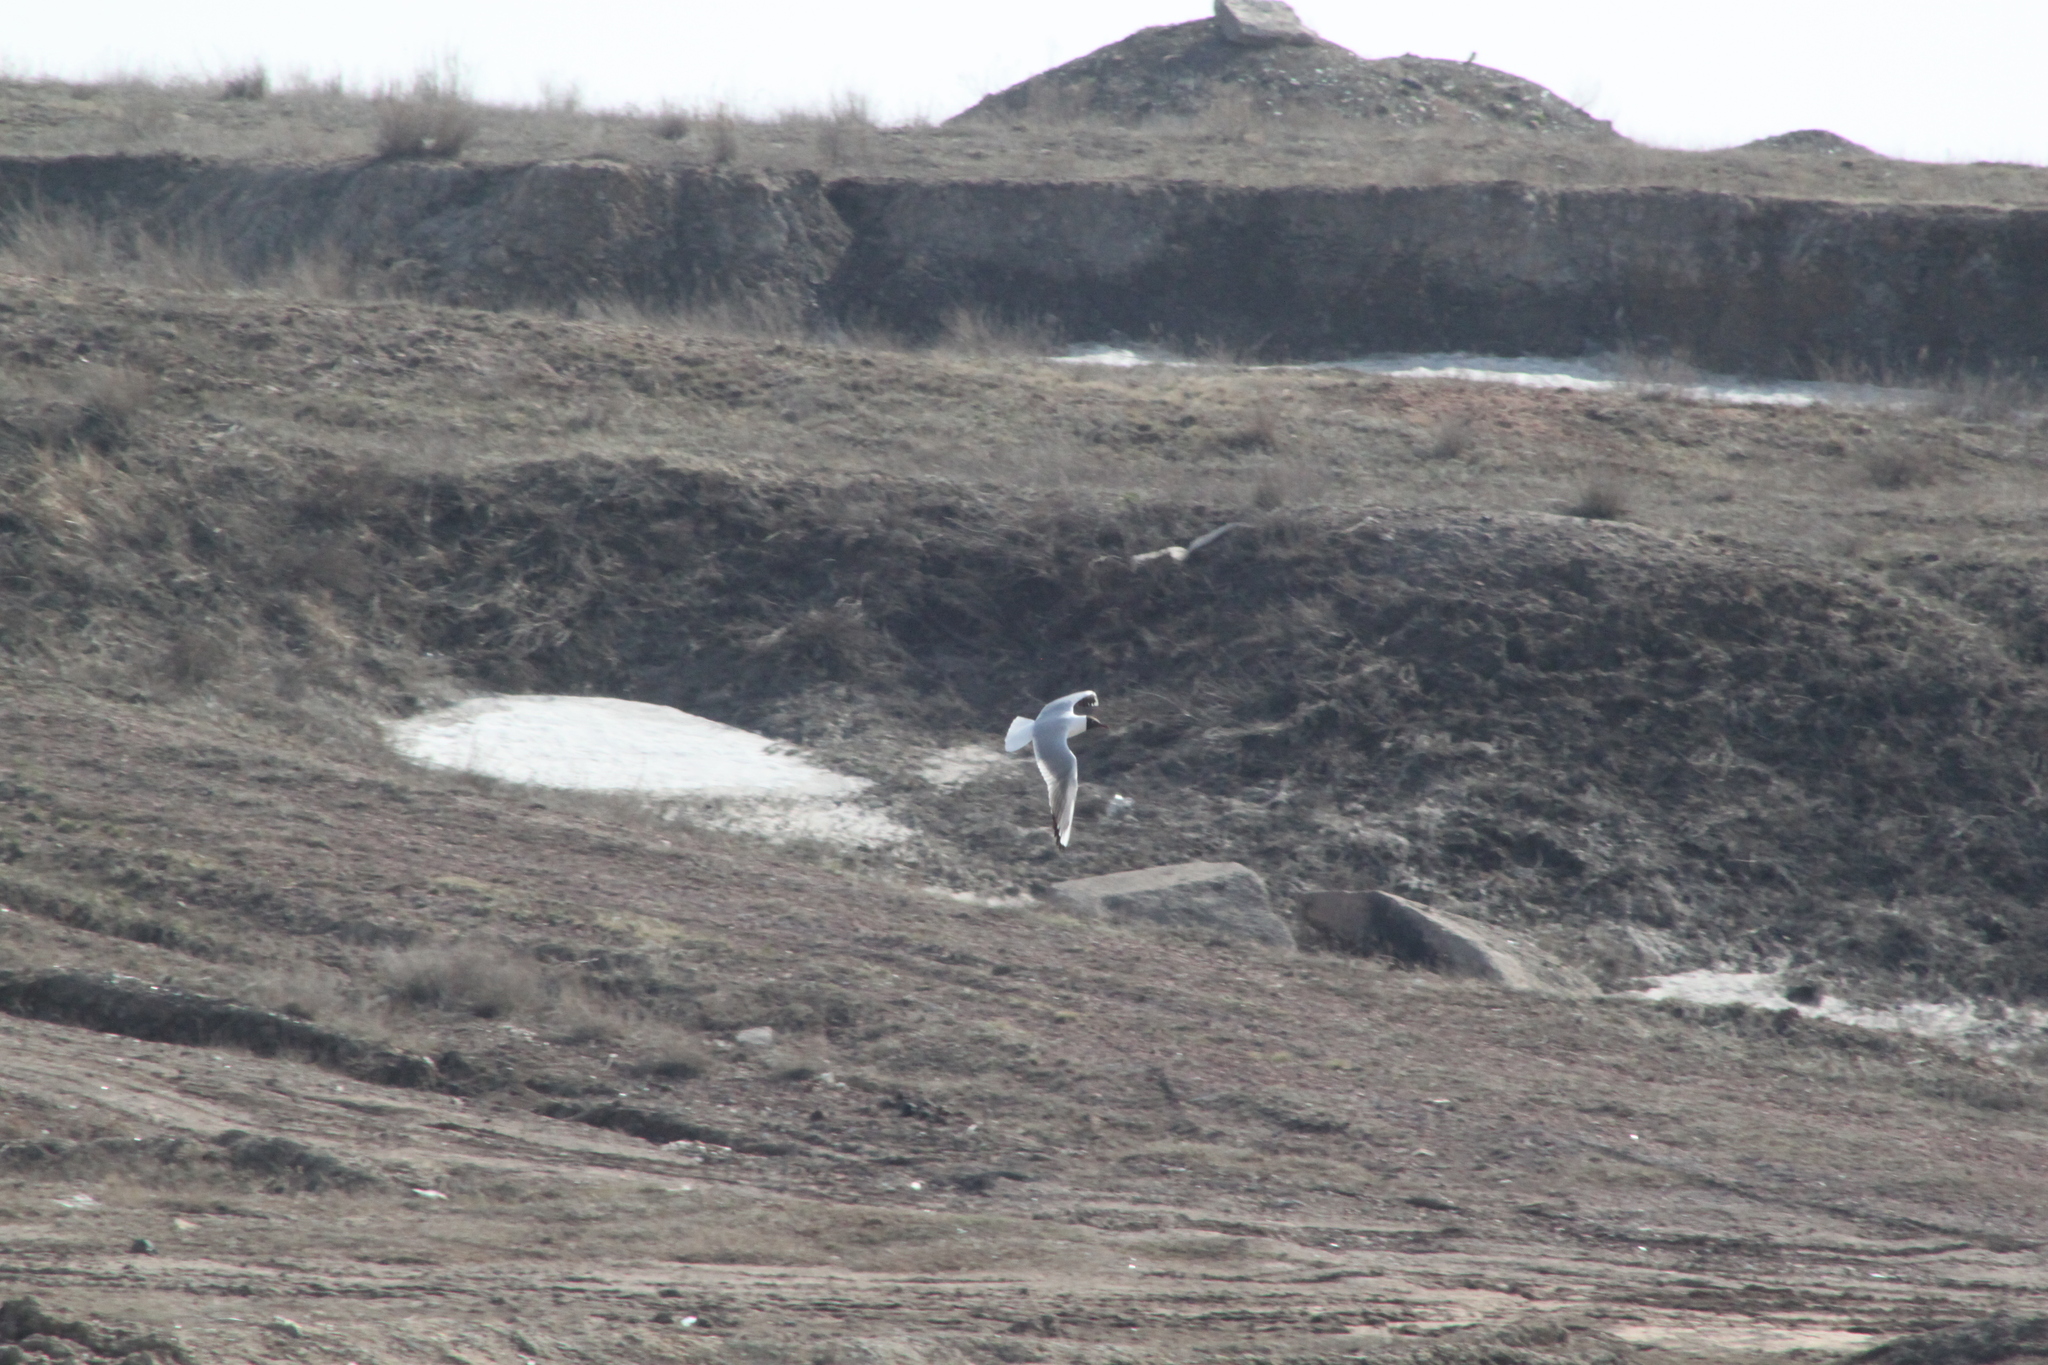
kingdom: Animalia
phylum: Chordata
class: Aves
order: Charadriiformes
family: Laridae
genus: Chroicocephalus
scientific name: Chroicocephalus ridibundus
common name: Black-headed gull
